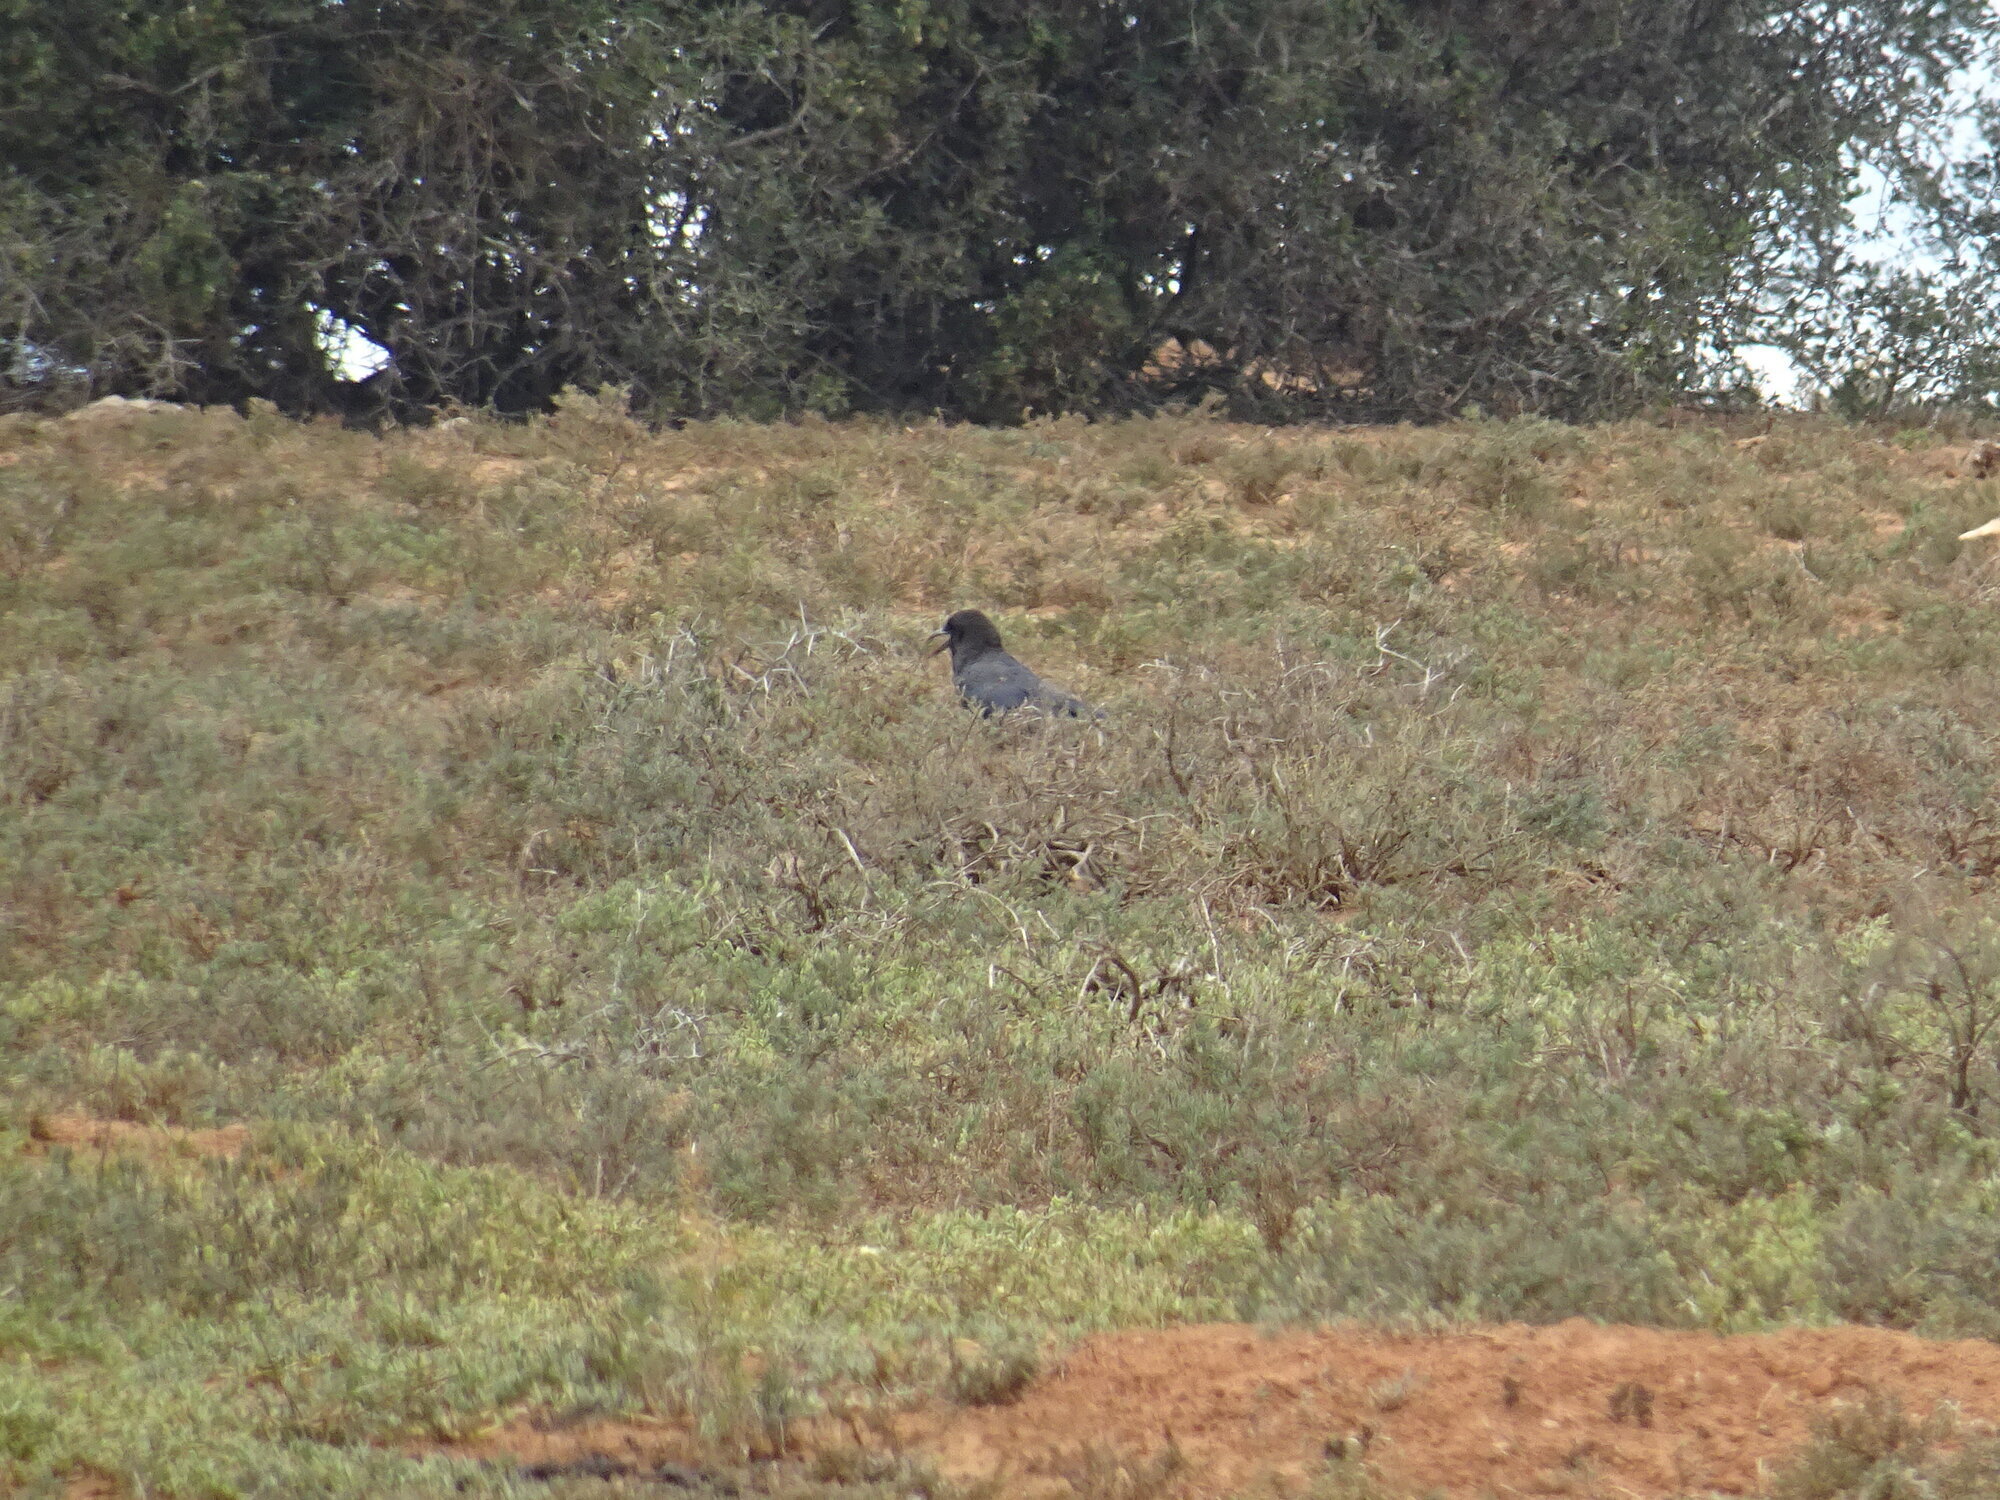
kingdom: Animalia
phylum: Chordata
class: Aves
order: Passeriformes
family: Corvidae
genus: Corvus
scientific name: Corvus capensis
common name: Cape crow
